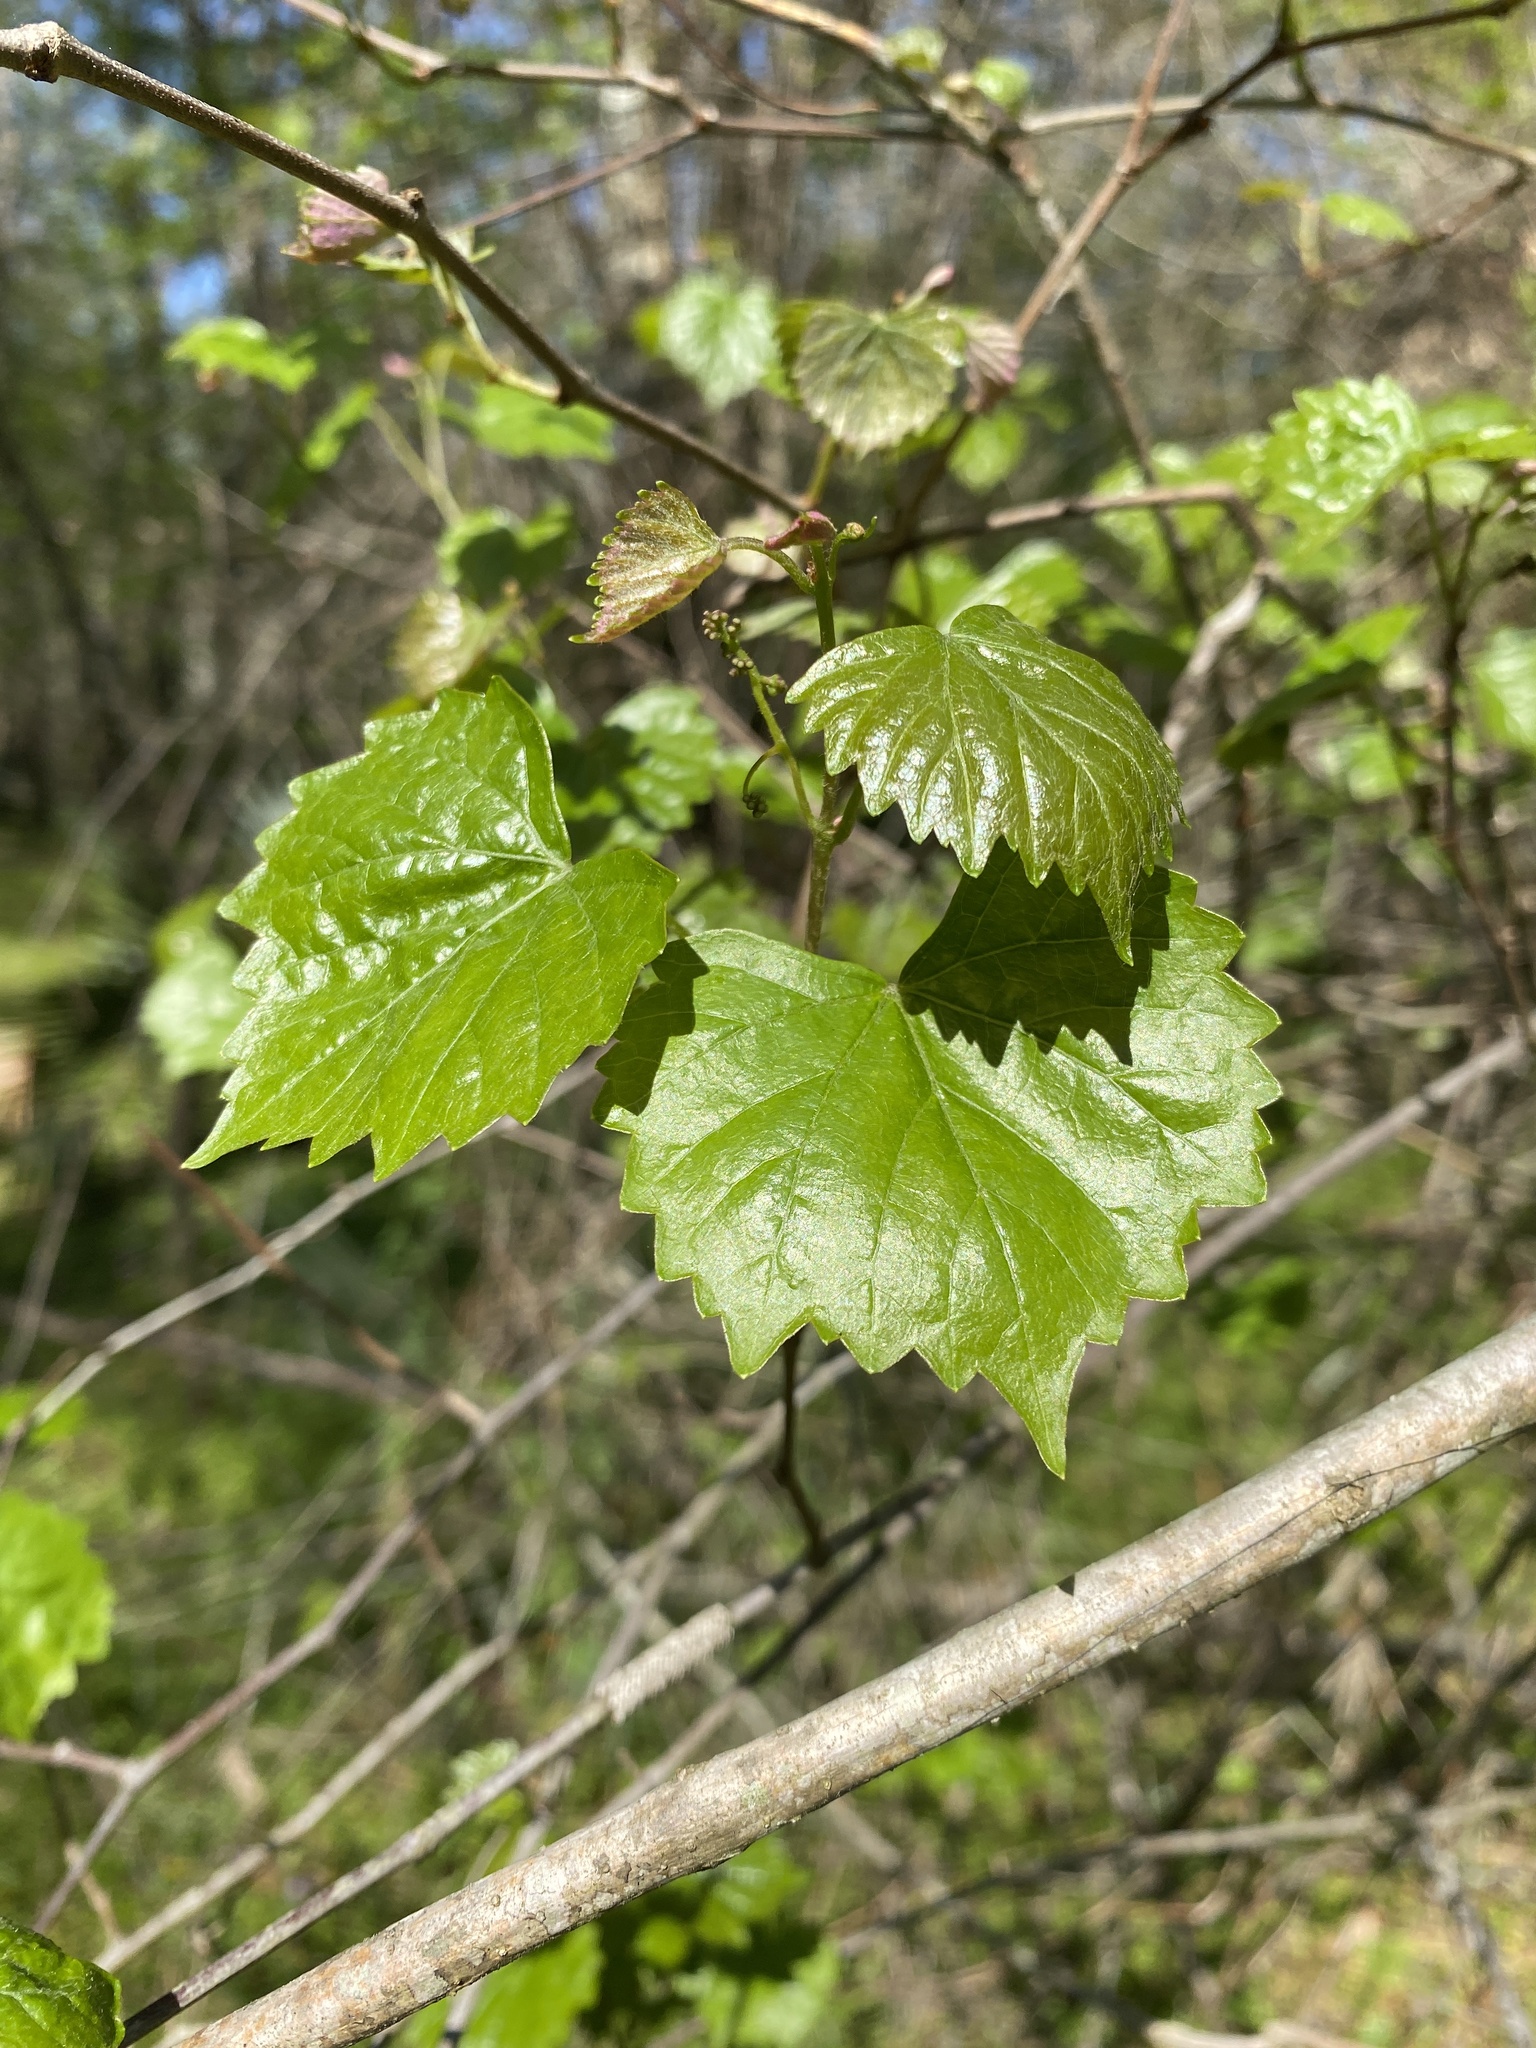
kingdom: Plantae
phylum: Tracheophyta
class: Magnoliopsida
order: Vitales
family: Vitaceae
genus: Vitis
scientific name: Vitis rotundifolia
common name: Muscadine grape
